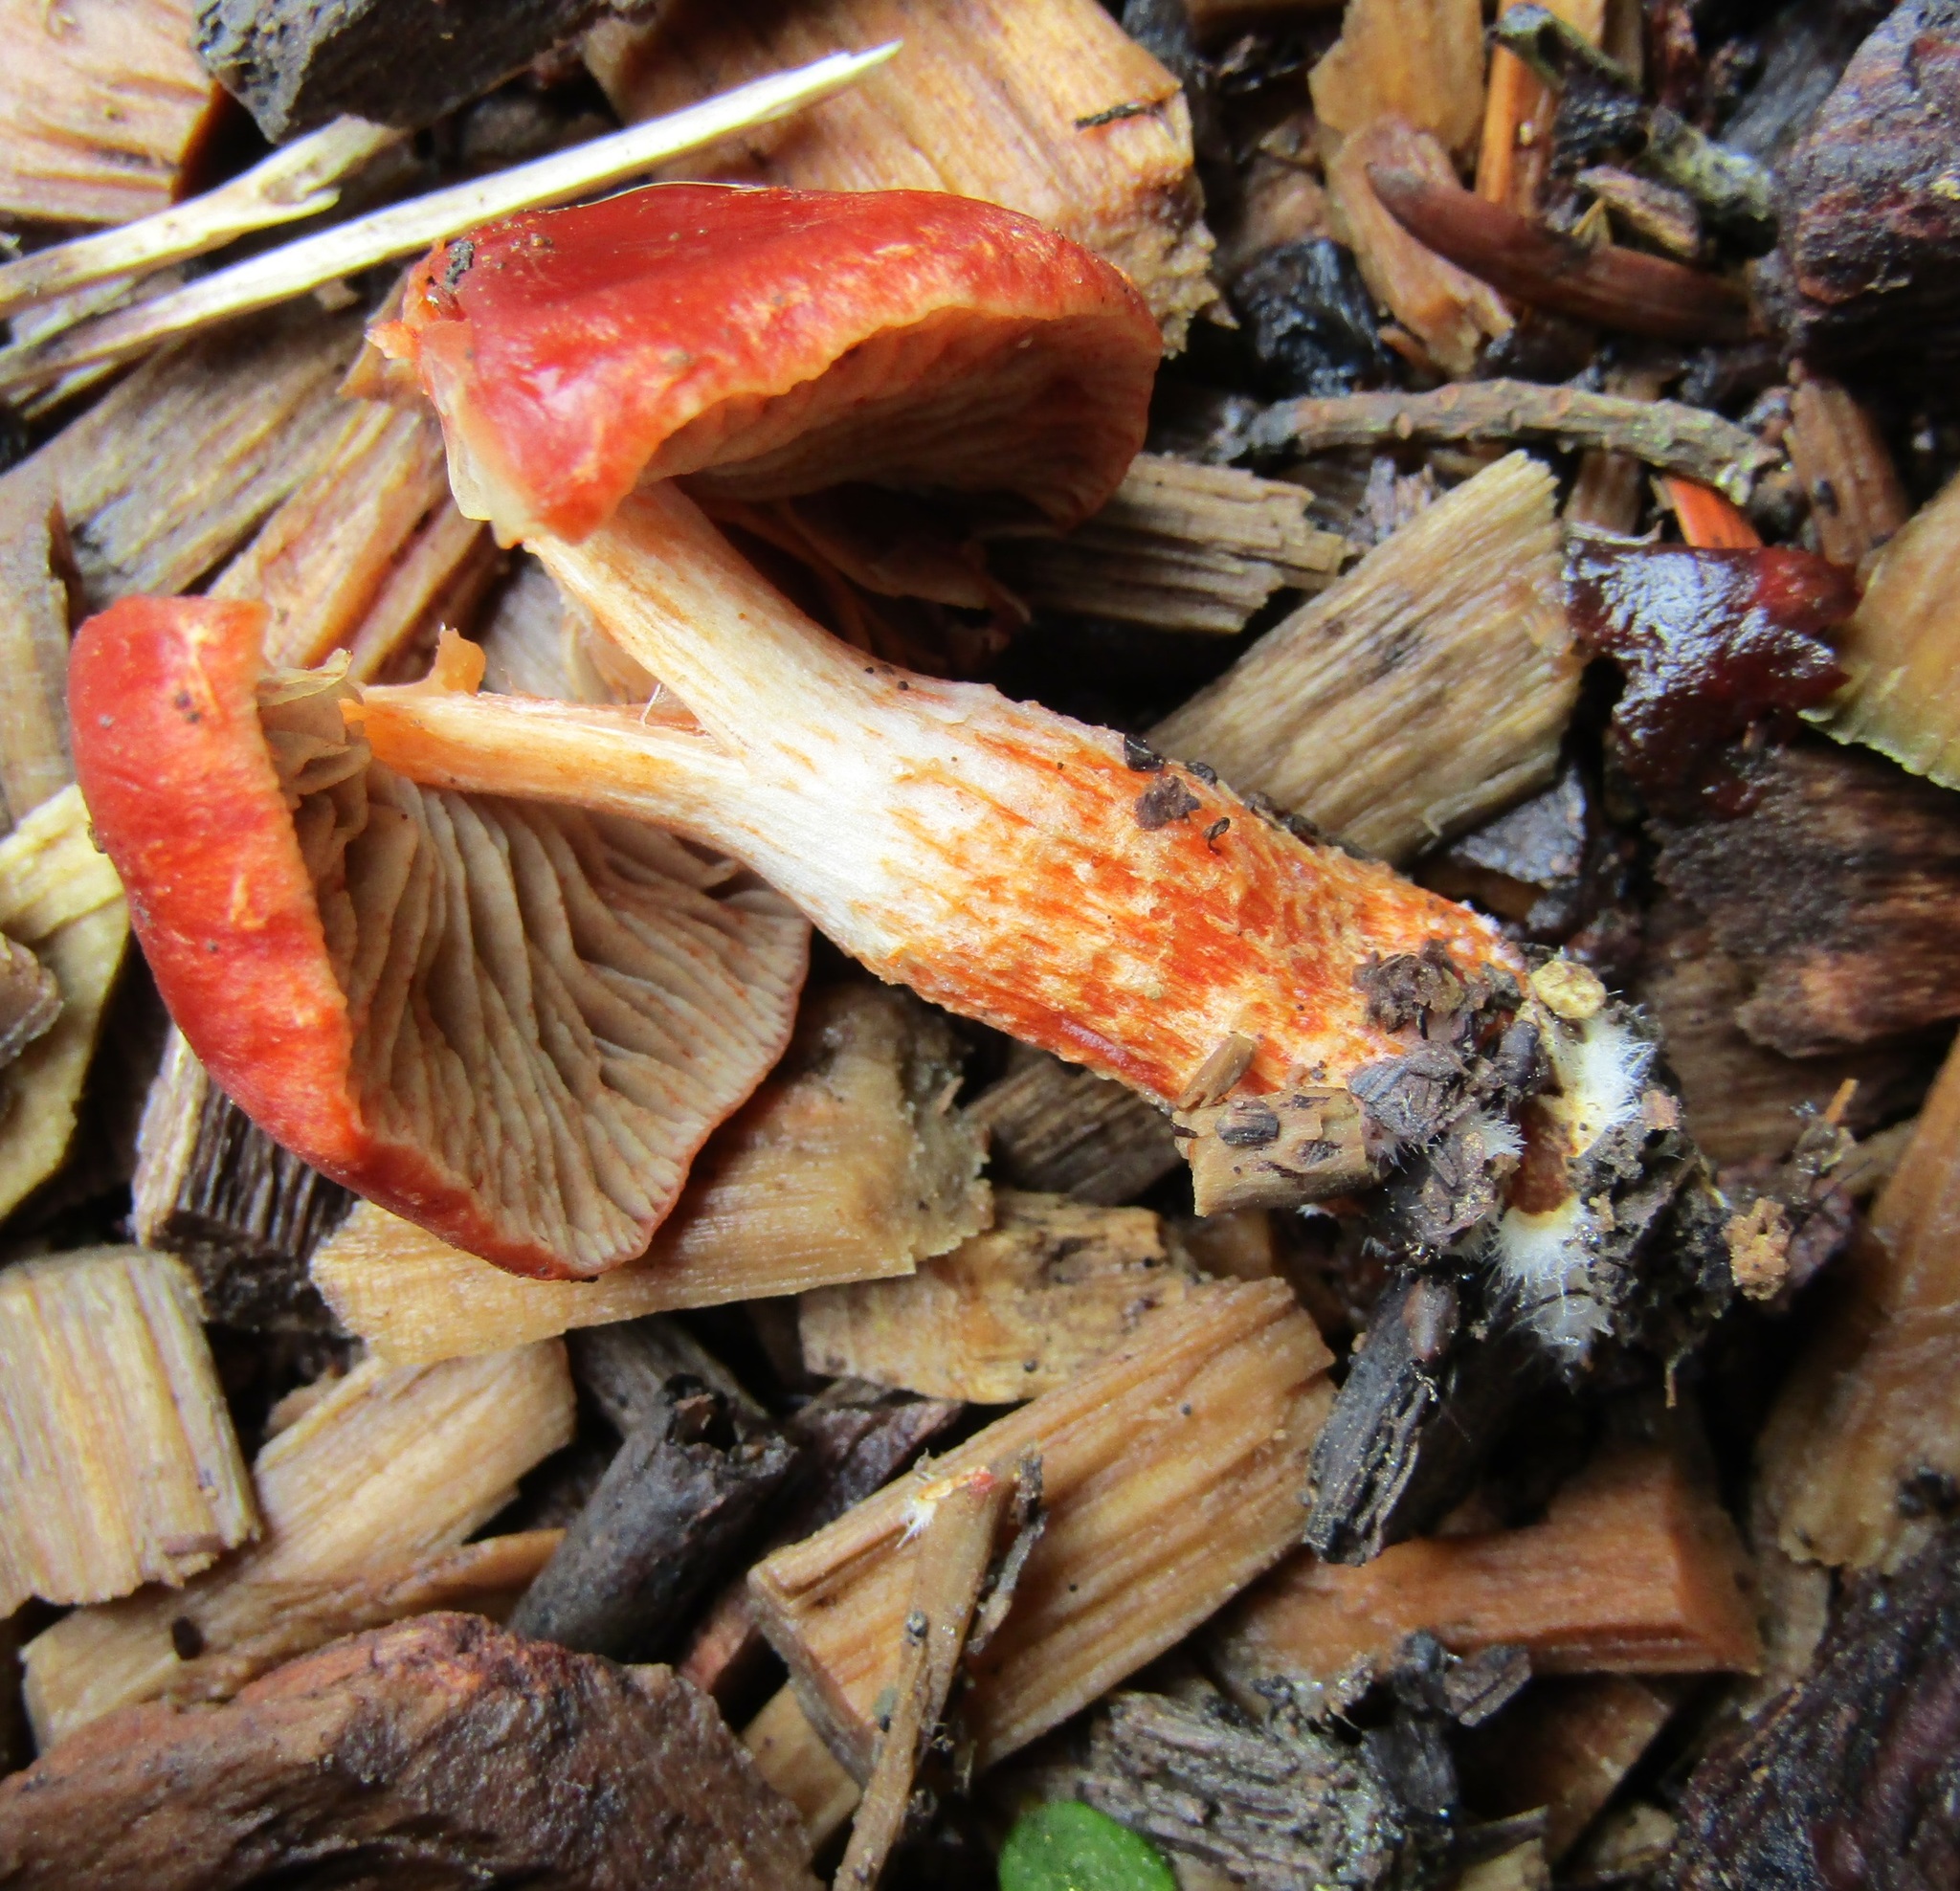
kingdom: Fungi
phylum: Basidiomycota
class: Agaricomycetes
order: Agaricales
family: Strophariaceae
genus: Leratiomyces
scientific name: Leratiomyces ceres
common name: Redlead roundhead
